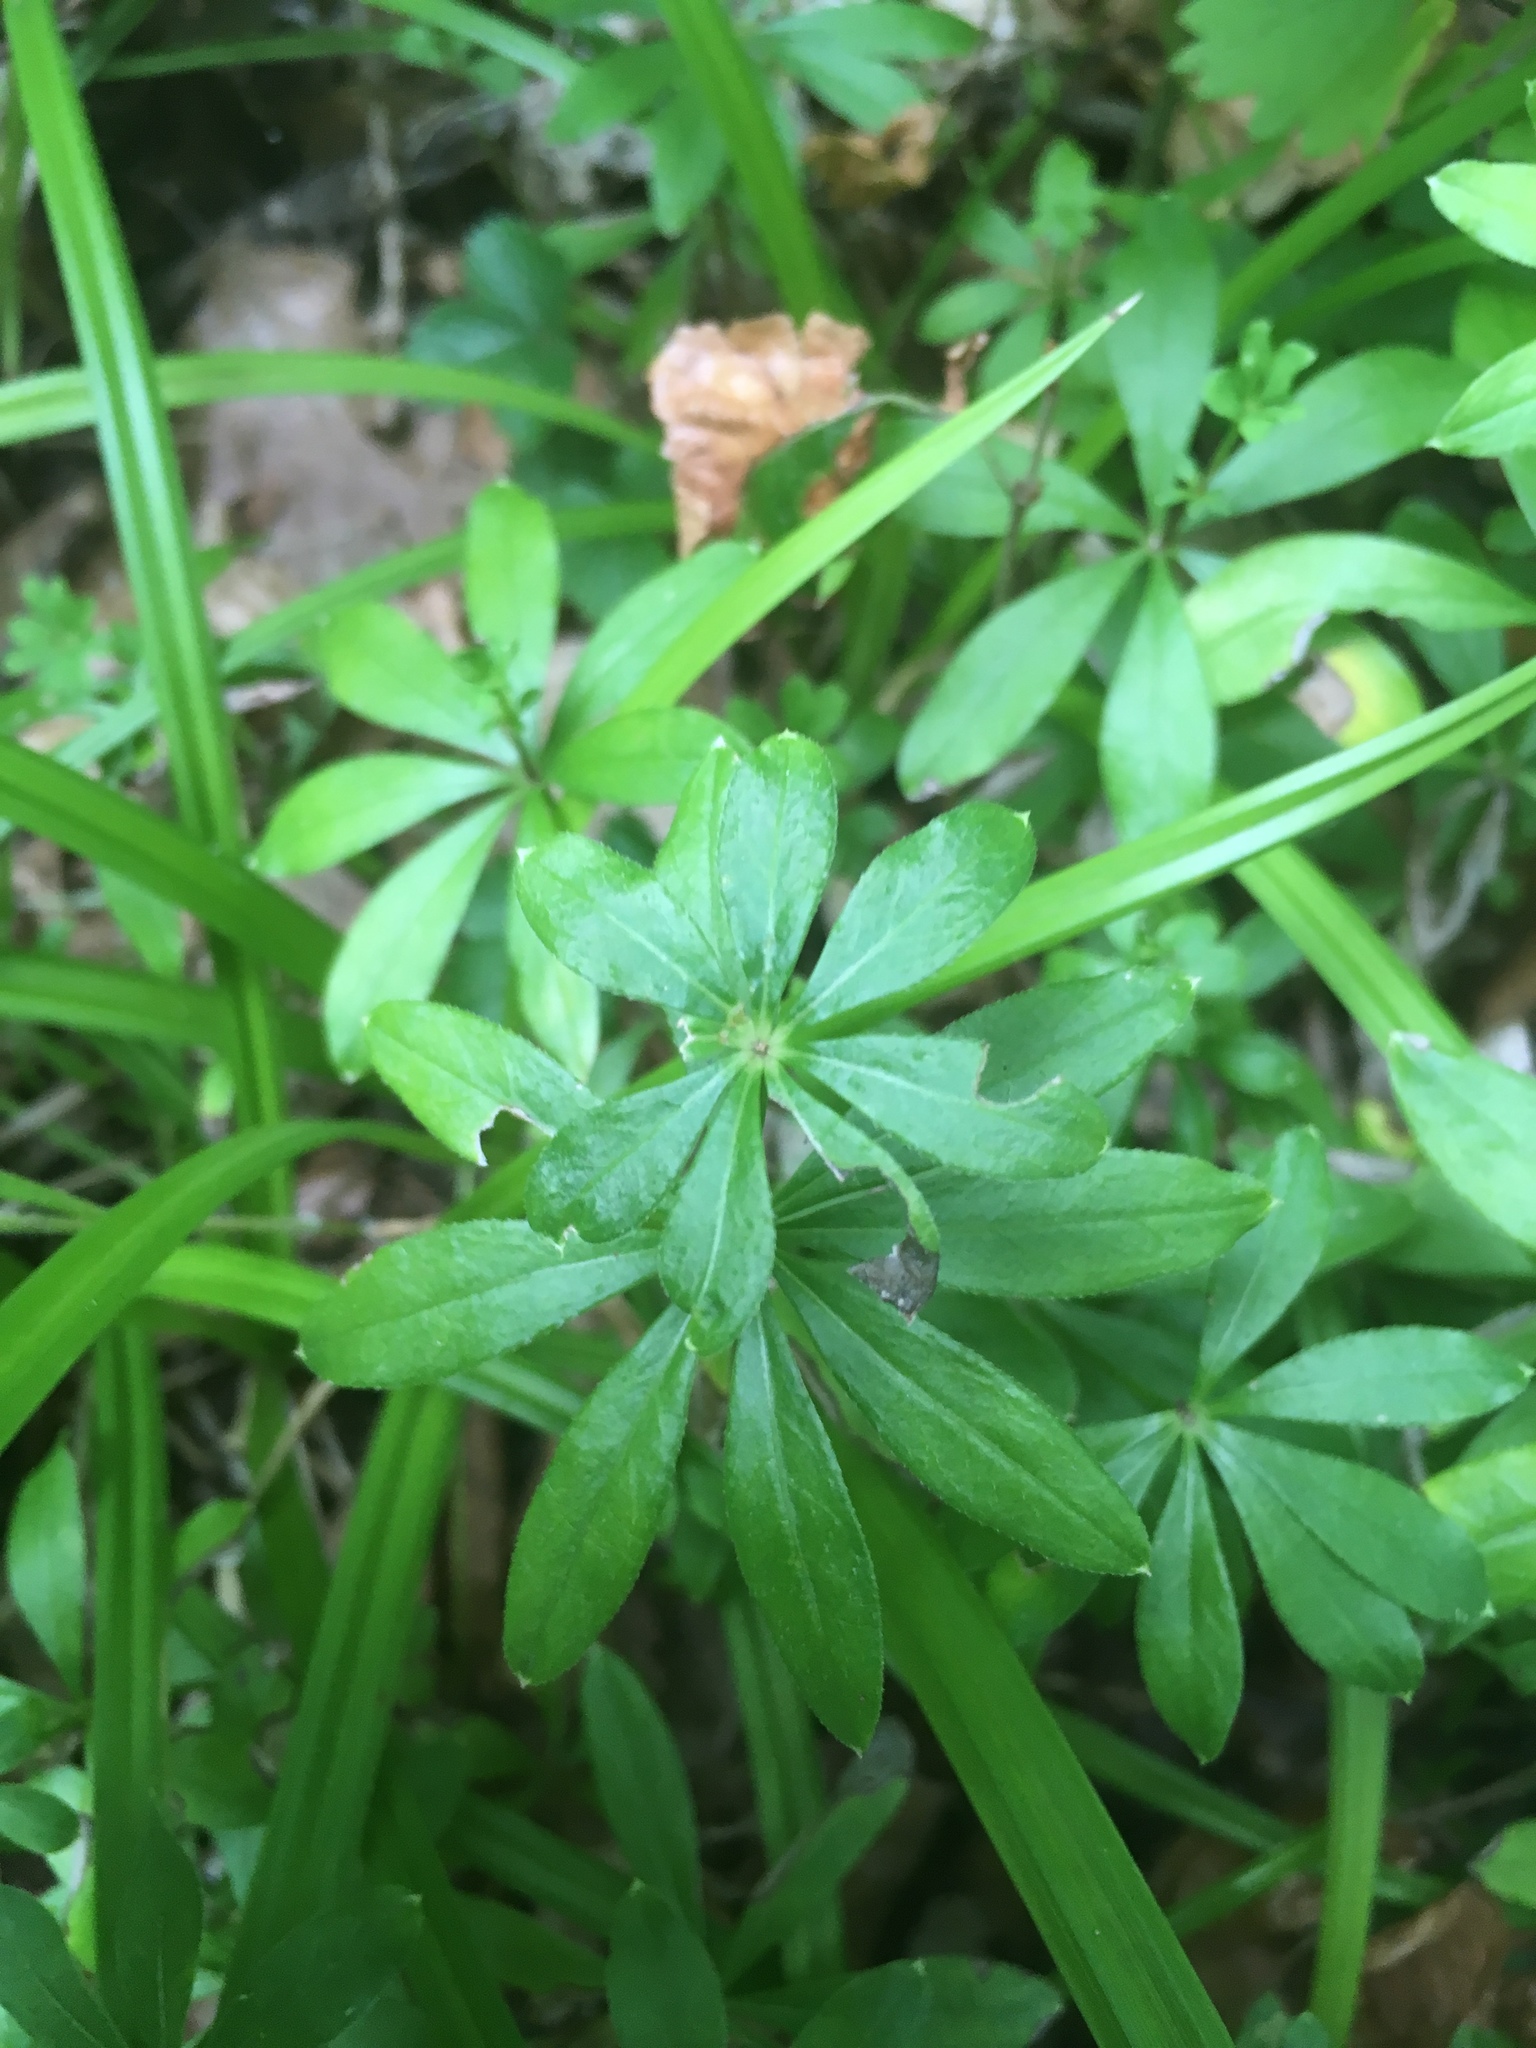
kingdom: Plantae
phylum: Tracheophyta
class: Magnoliopsida
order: Gentianales
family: Rubiaceae
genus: Galium
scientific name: Galium odoratum
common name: Sweet woodruff
